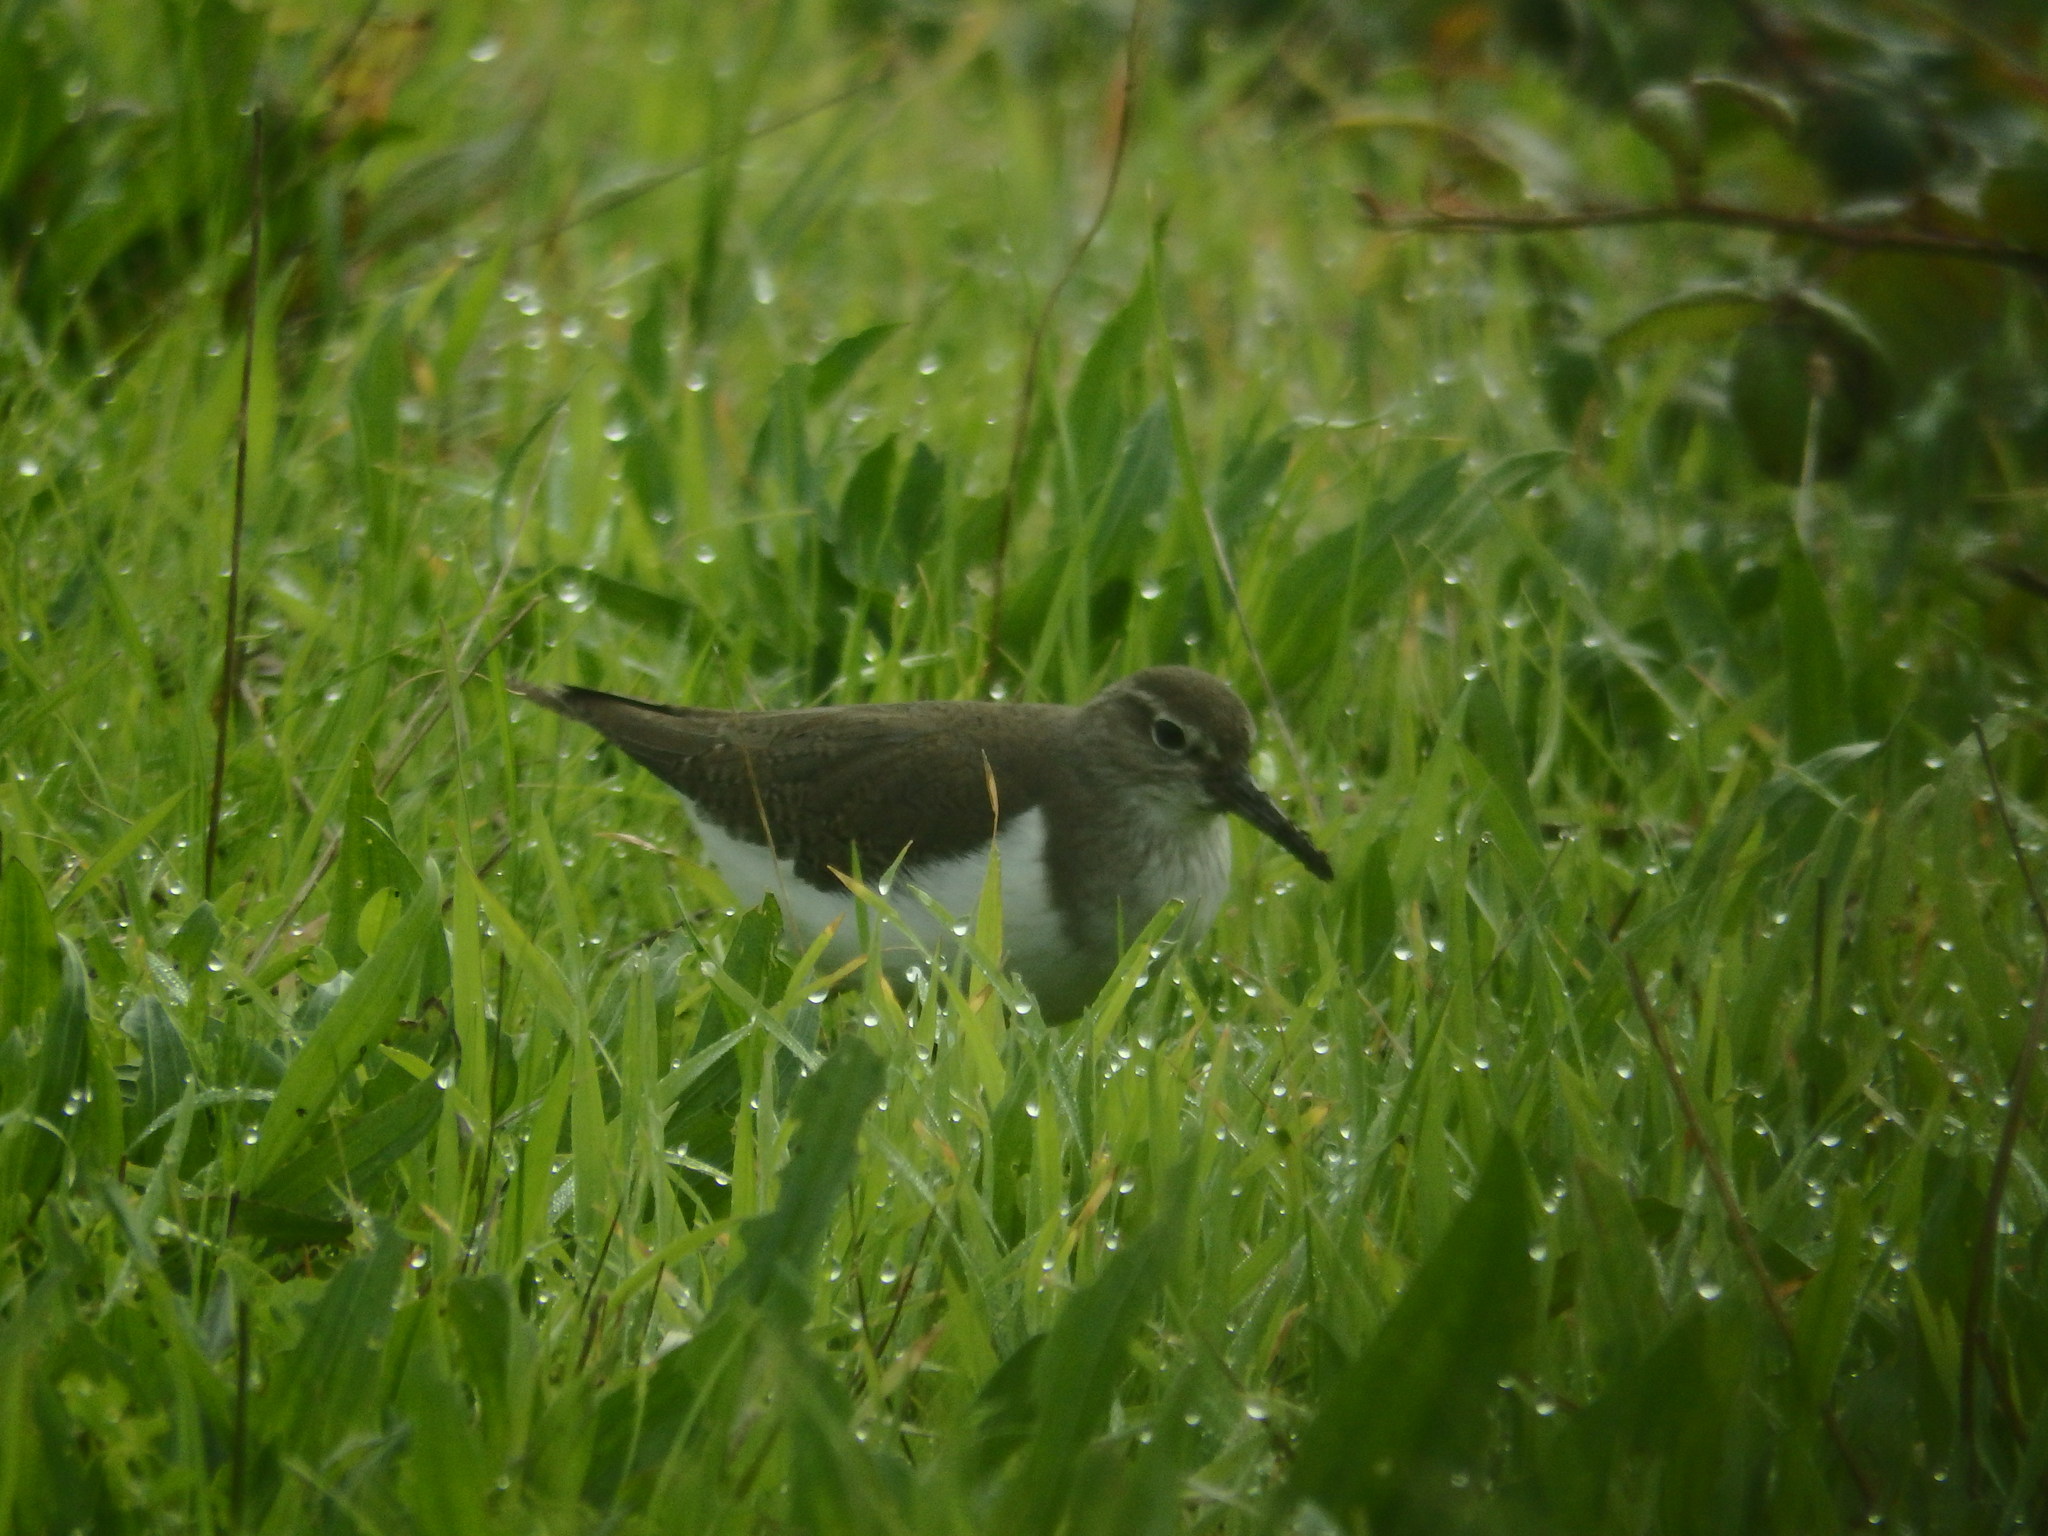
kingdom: Animalia
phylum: Chordata
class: Aves
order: Charadriiformes
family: Scolopacidae
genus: Actitis
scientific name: Actitis hypoleucos
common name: Common sandpiper
